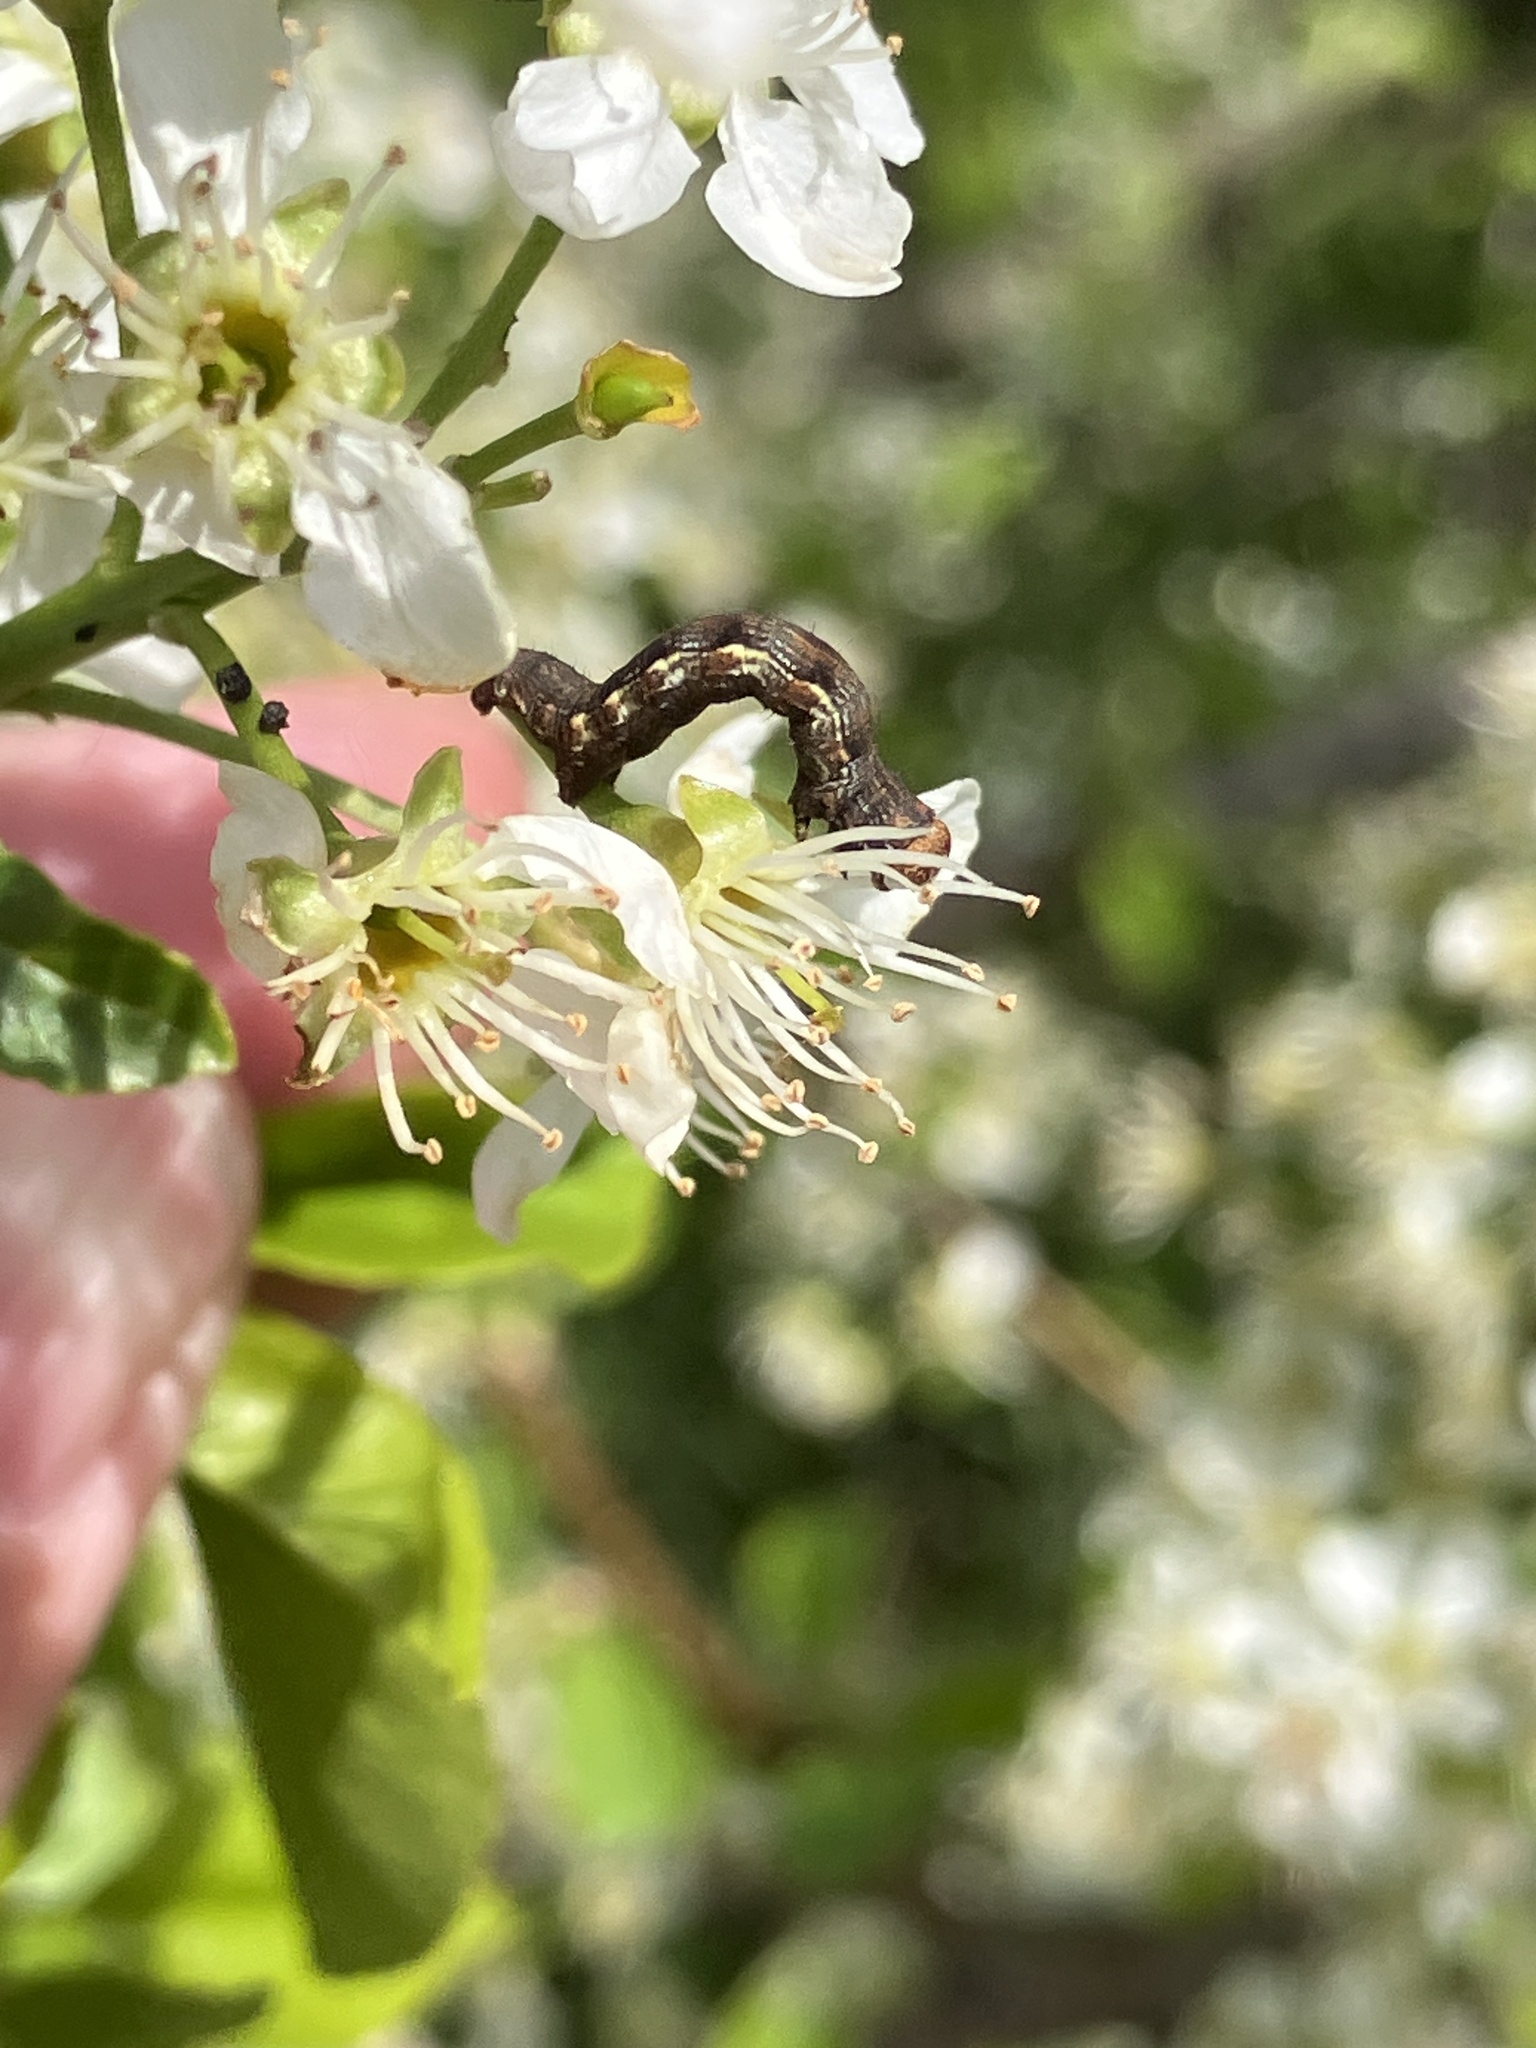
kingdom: Animalia
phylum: Arthropoda
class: Insecta
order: Lepidoptera
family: Geometridae
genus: Erannis
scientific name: Erannis defoliaria
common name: Mottled umber
